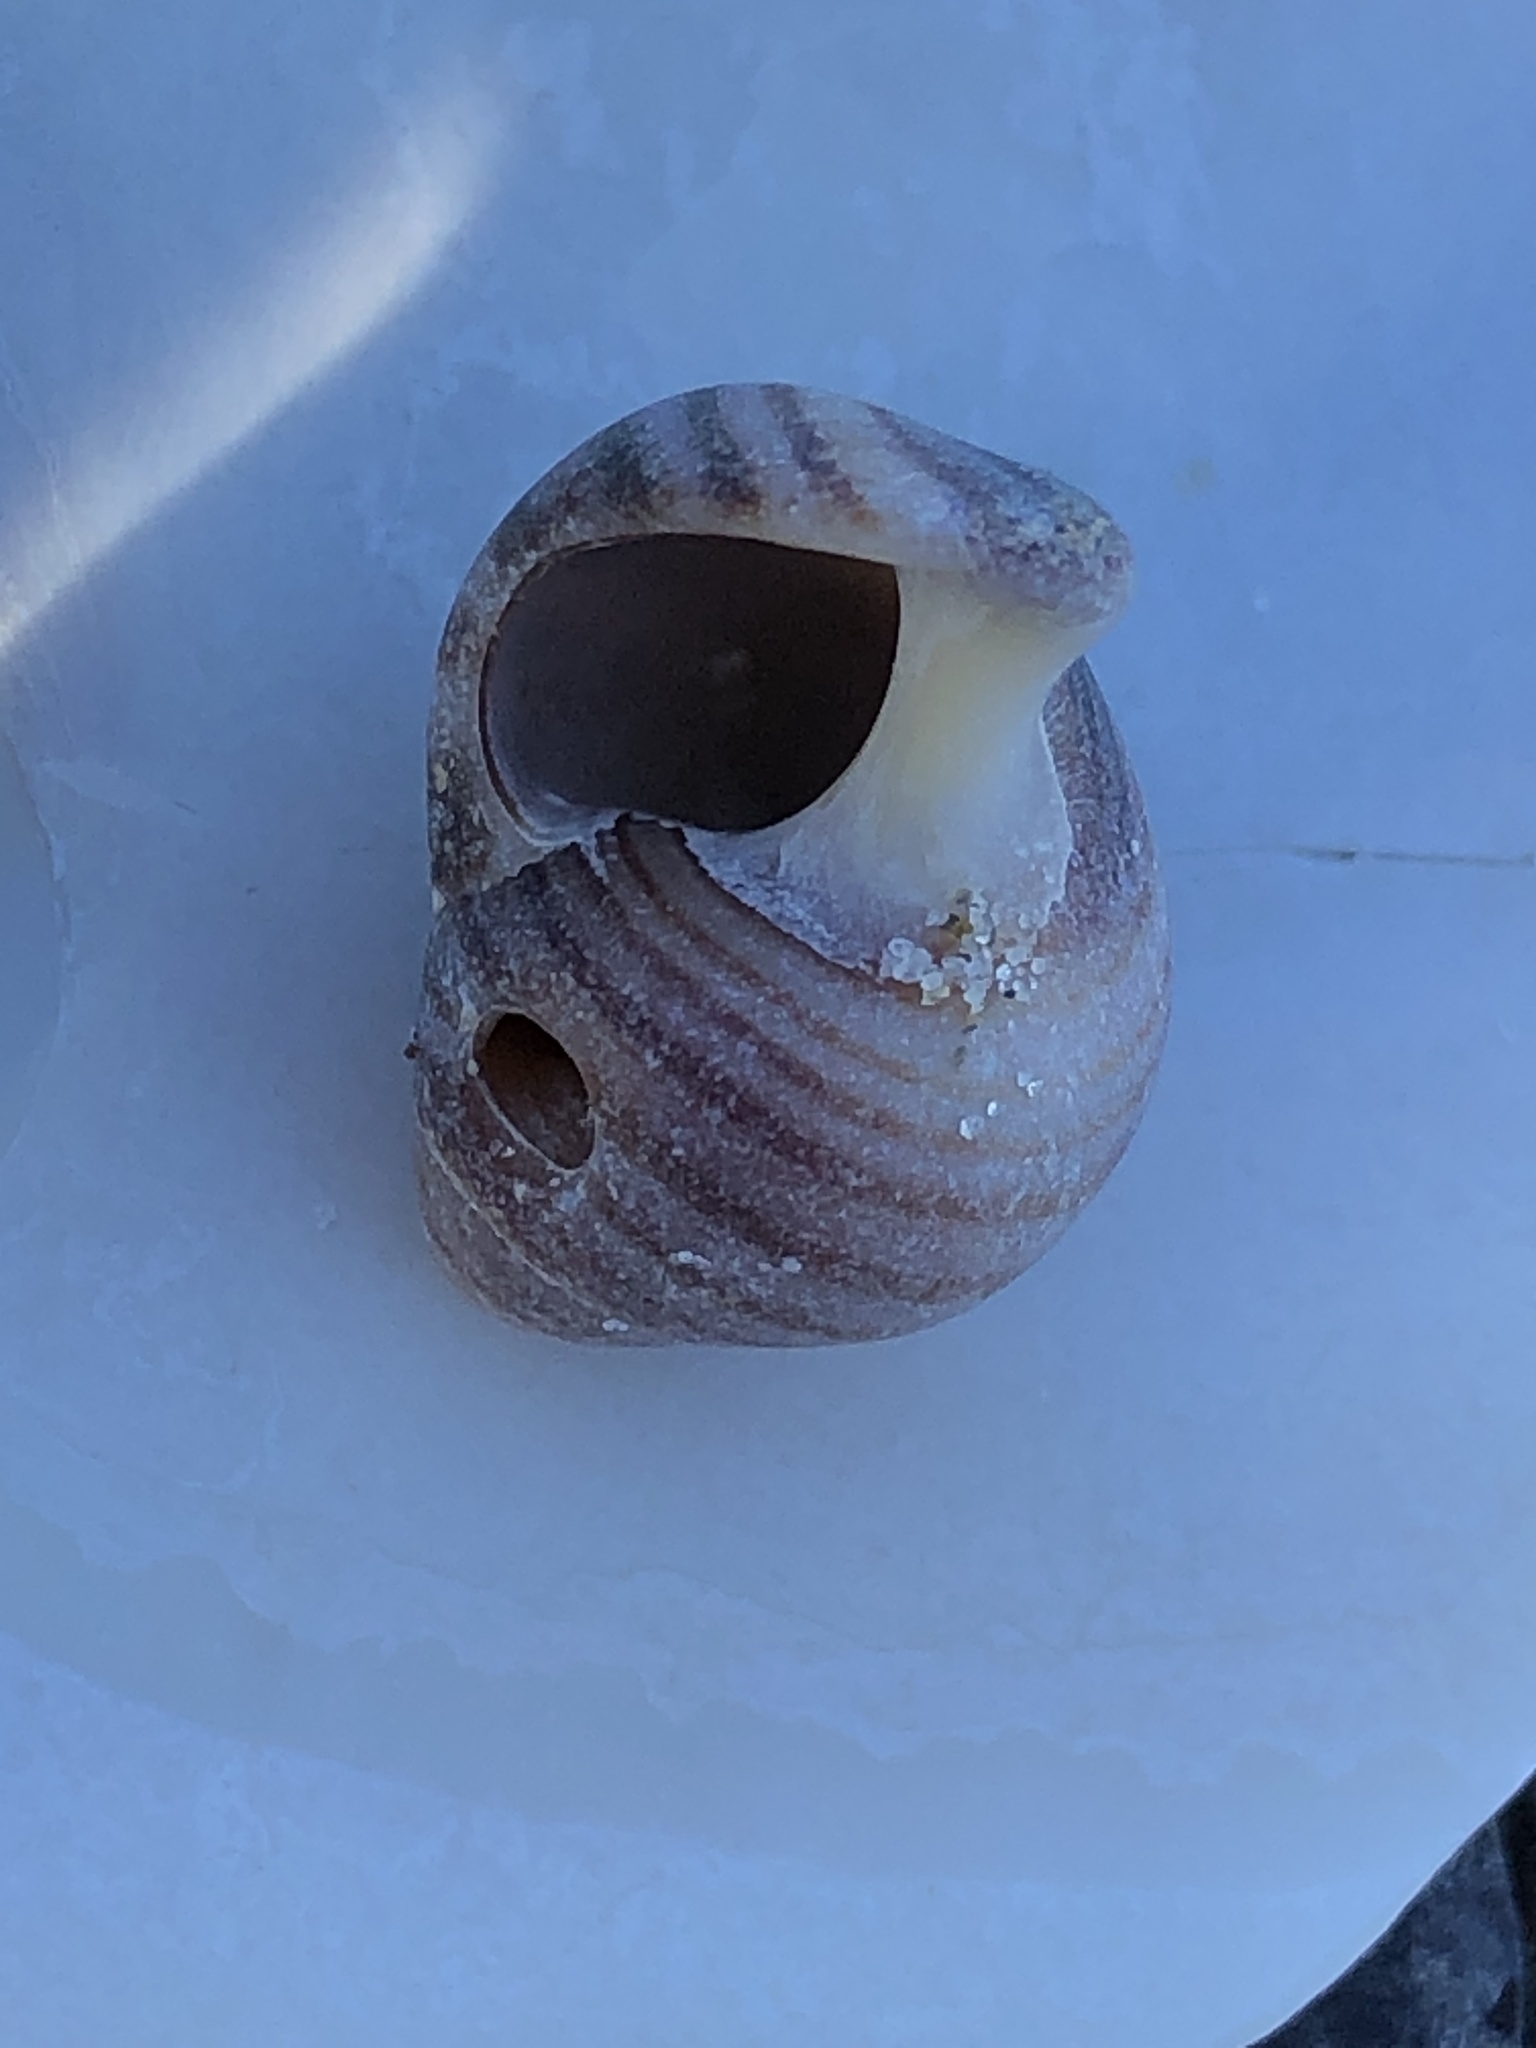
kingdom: Animalia
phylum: Mollusca
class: Gastropoda
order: Littorinimorpha
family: Littorinidae
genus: Littorina
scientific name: Littorina littorea
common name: Common periwinkle
